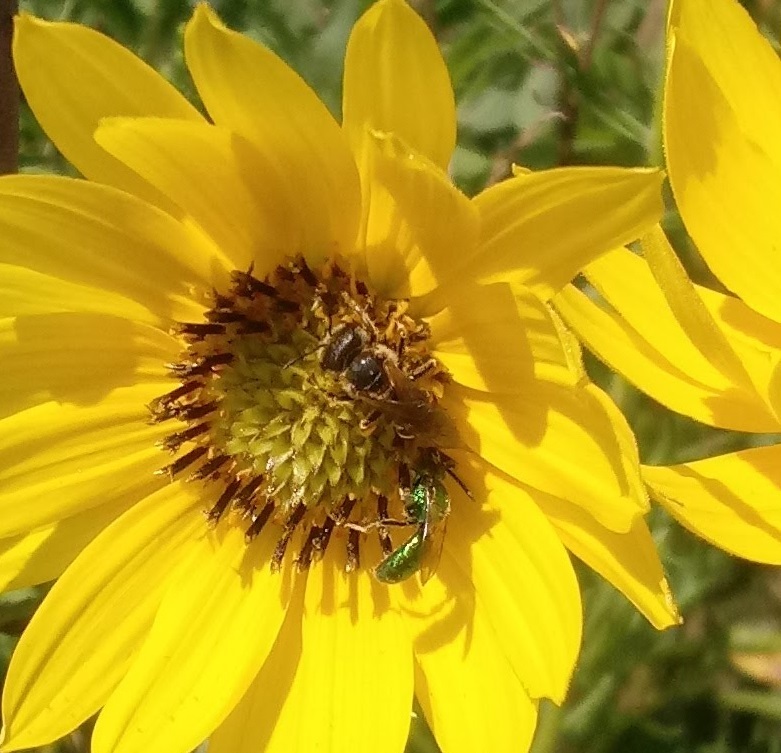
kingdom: Animalia
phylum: Arthropoda
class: Insecta
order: Hymenoptera
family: Halictidae
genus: Halictus
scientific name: Halictus ligatus
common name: Ligated furrow bee
